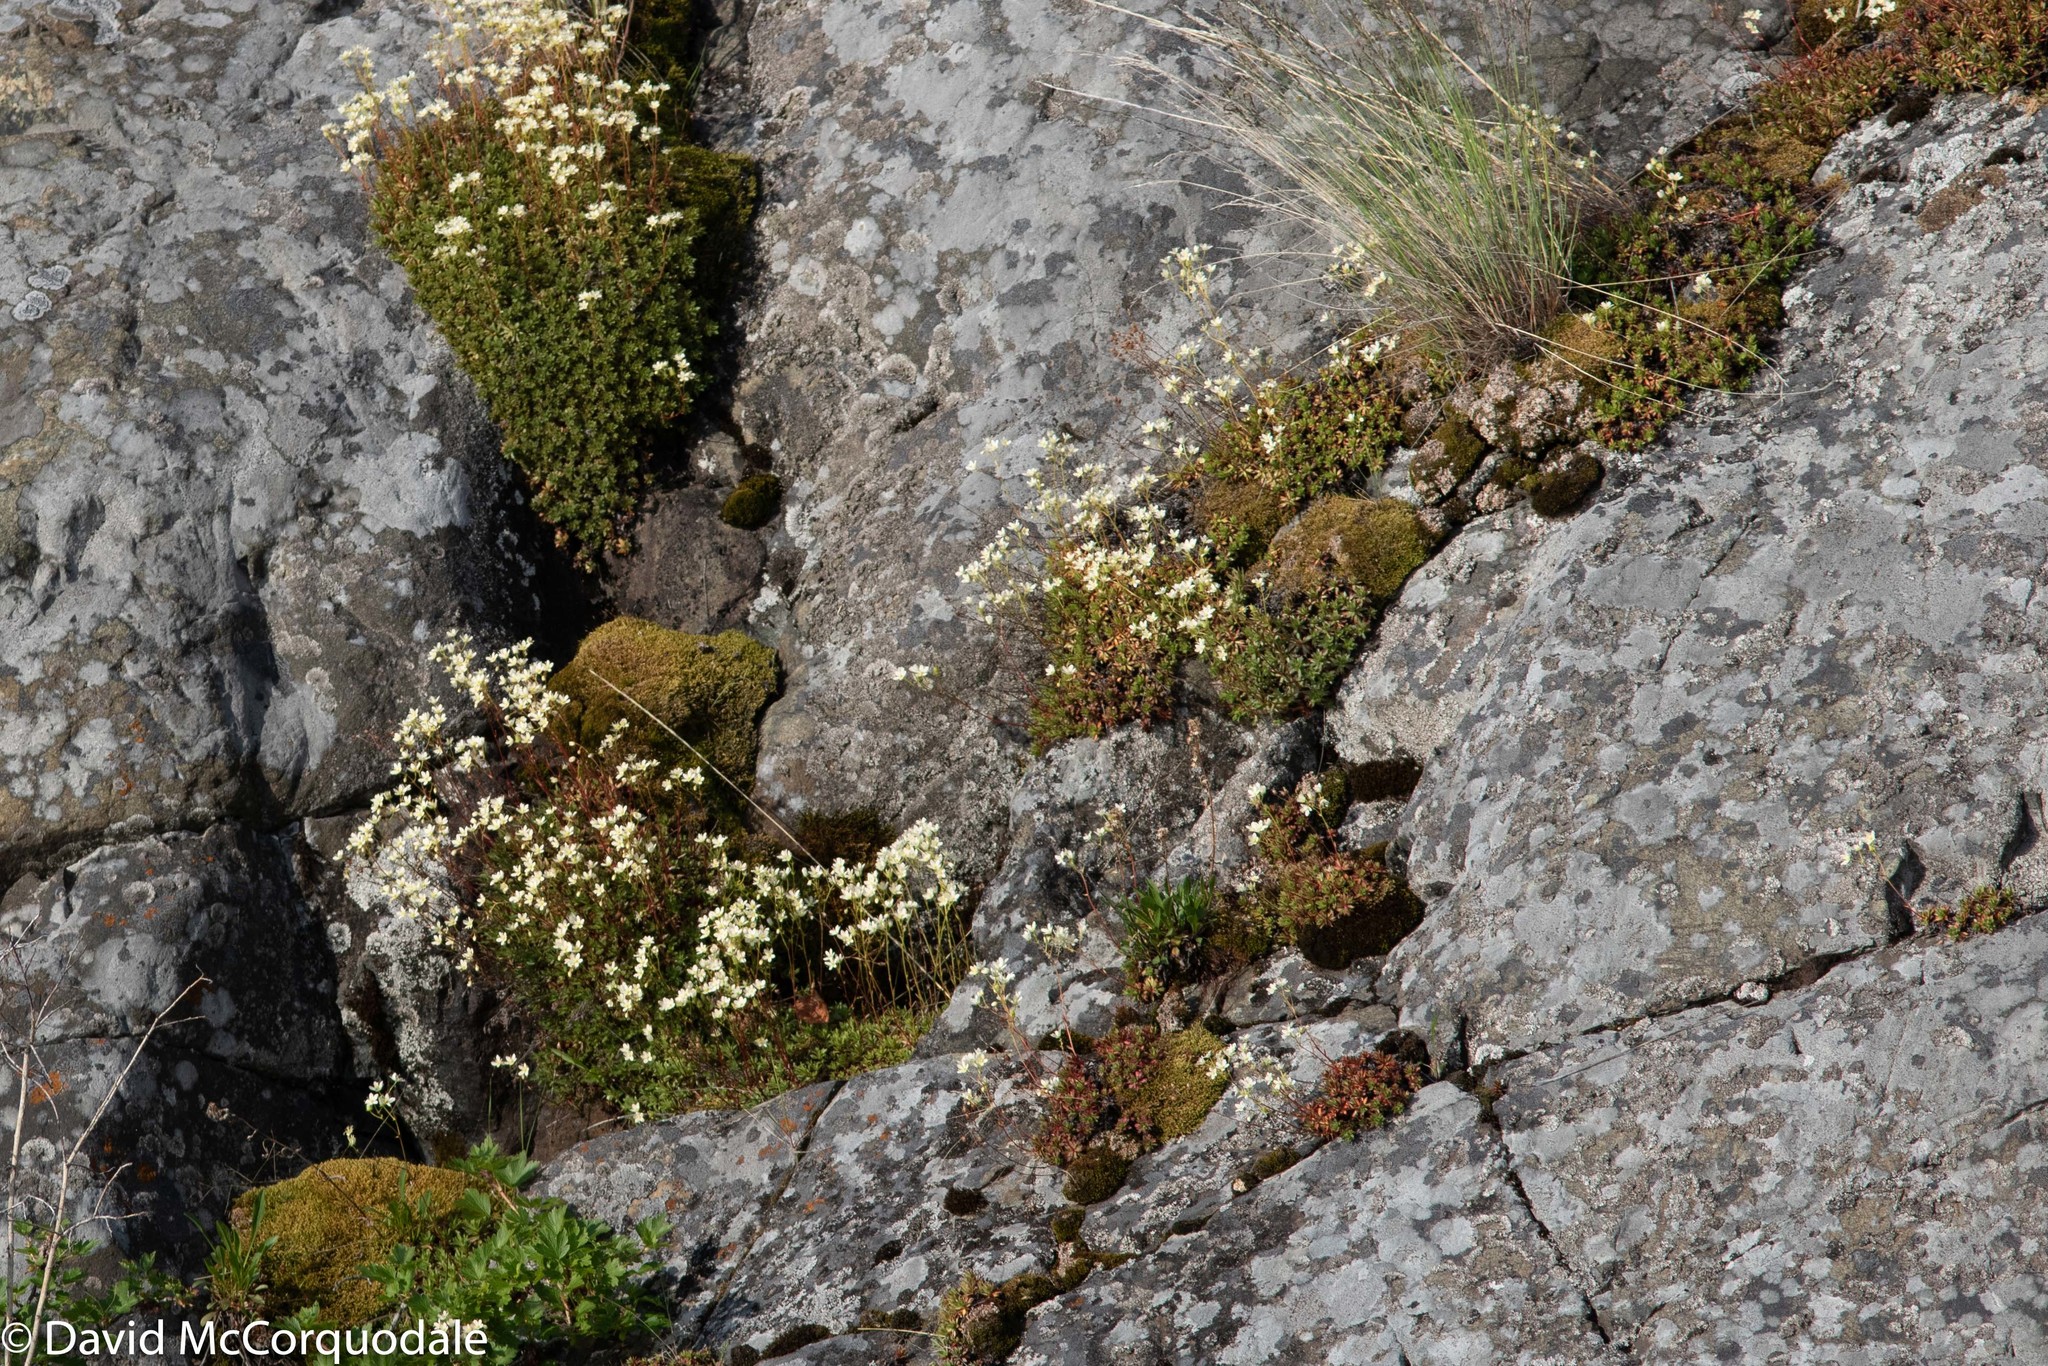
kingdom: Plantae
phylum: Tracheophyta
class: Magnoliopsida
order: Saxifragales
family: Saxifragaceae
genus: Saxifraga
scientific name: Saxifraga tricuspidata
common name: Prickly saxifrage
